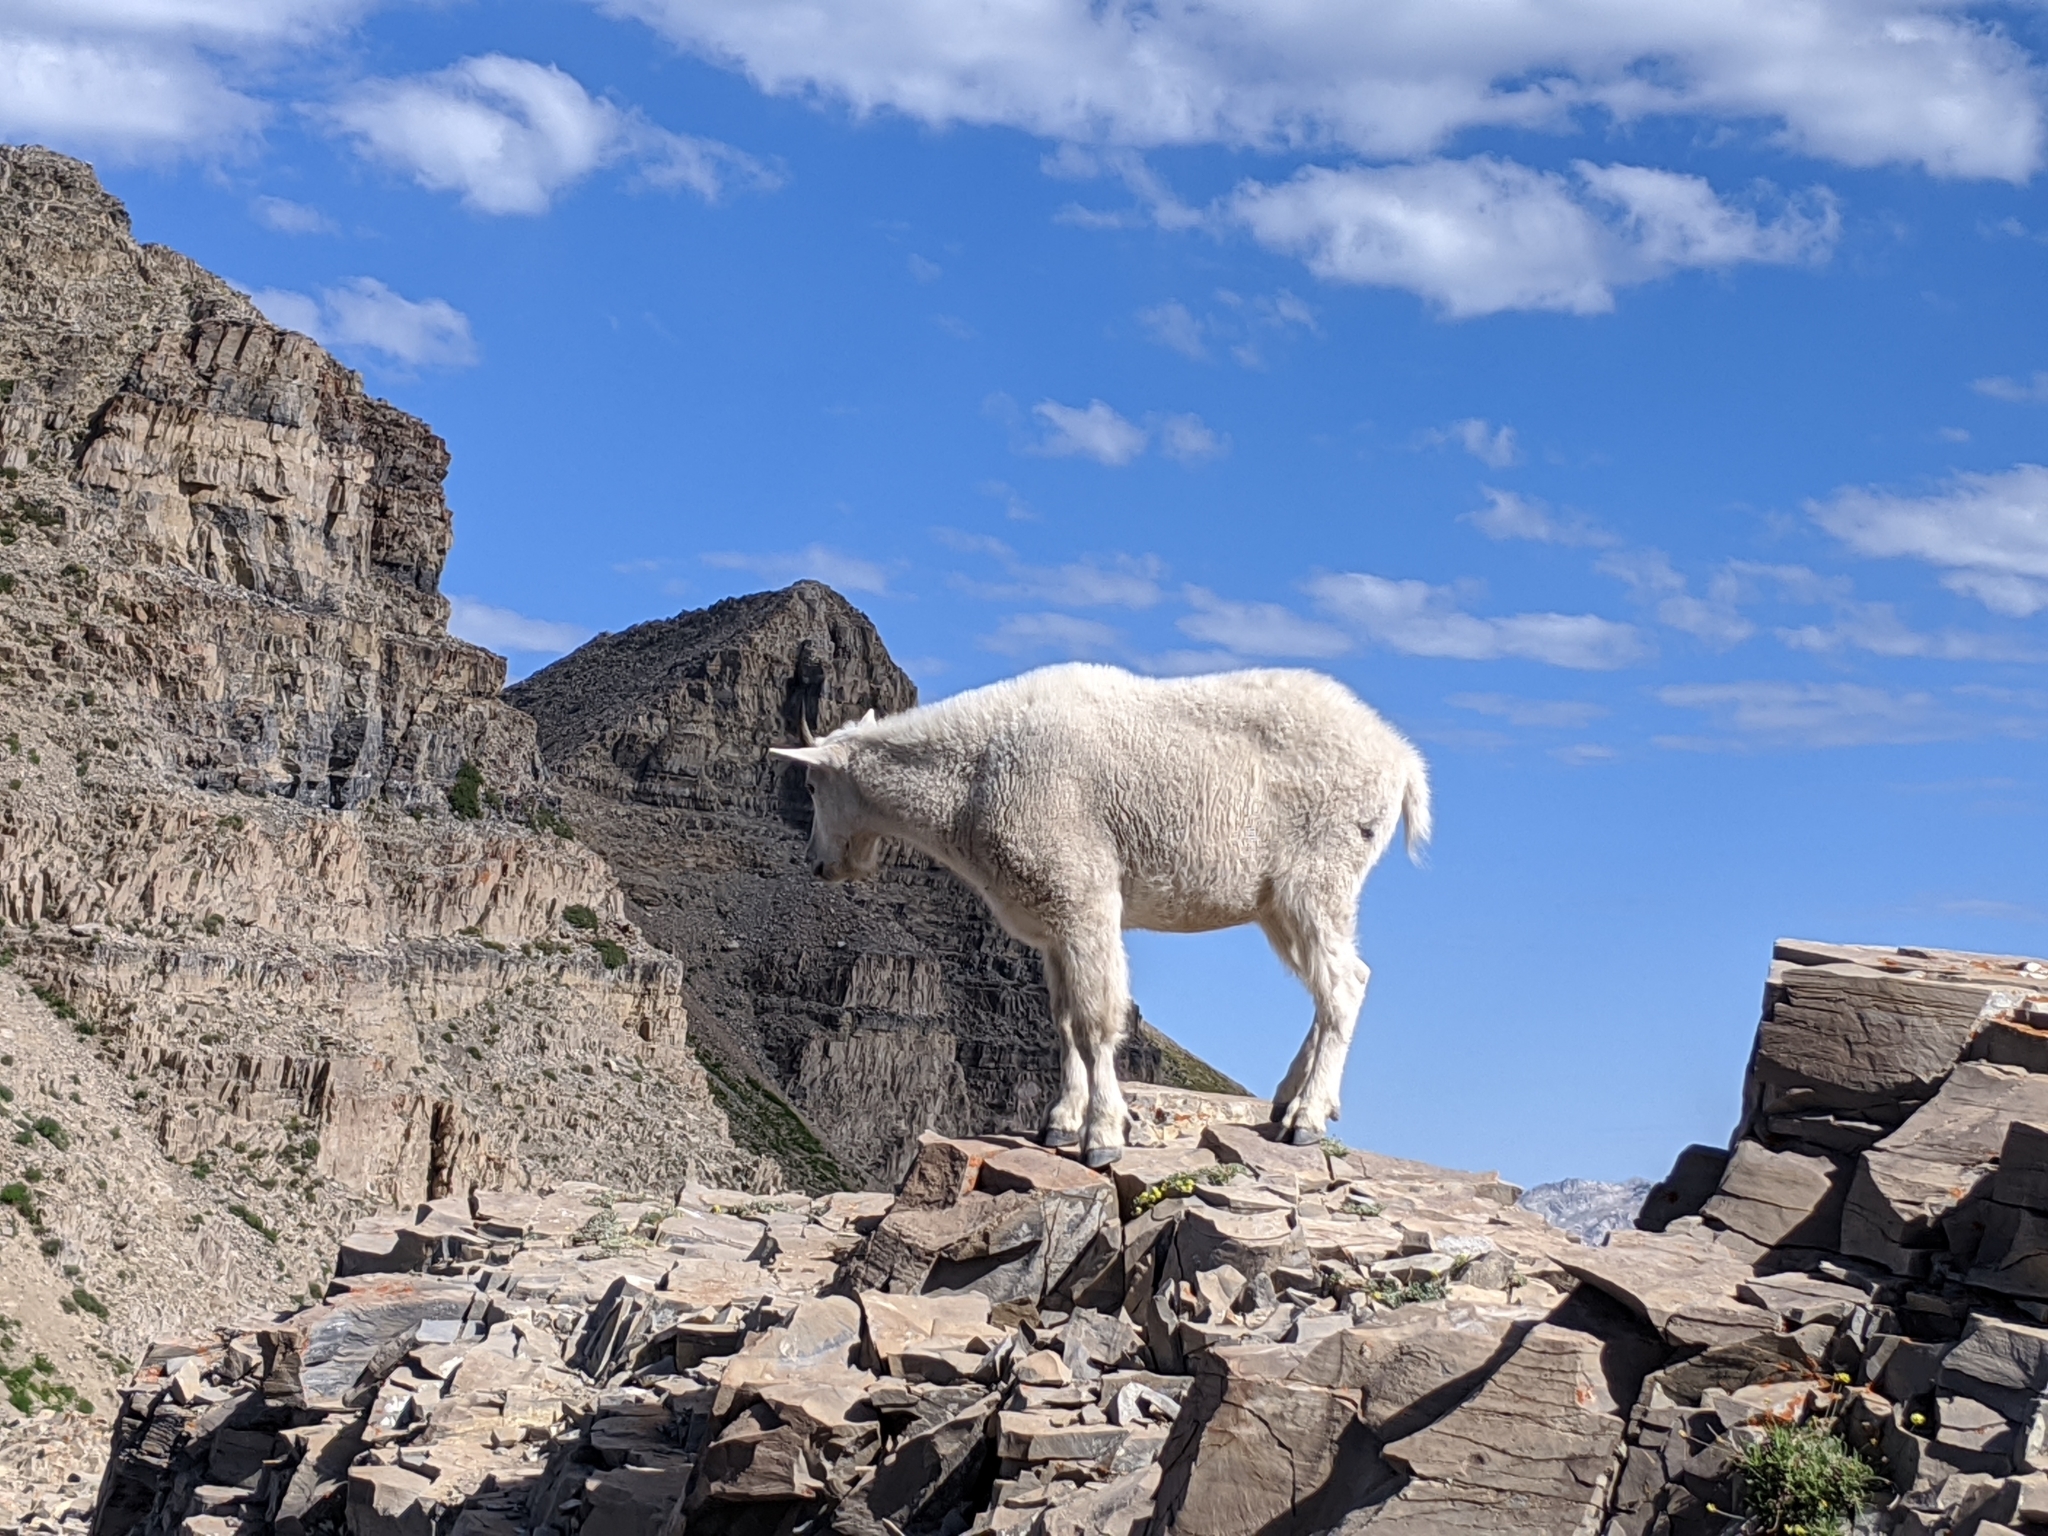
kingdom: Animalia
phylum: Chordata
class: Mammalia
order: Artiodactyla
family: Bovidae
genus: Oreamnos
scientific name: Oreamnos americanus
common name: Mountain goat
